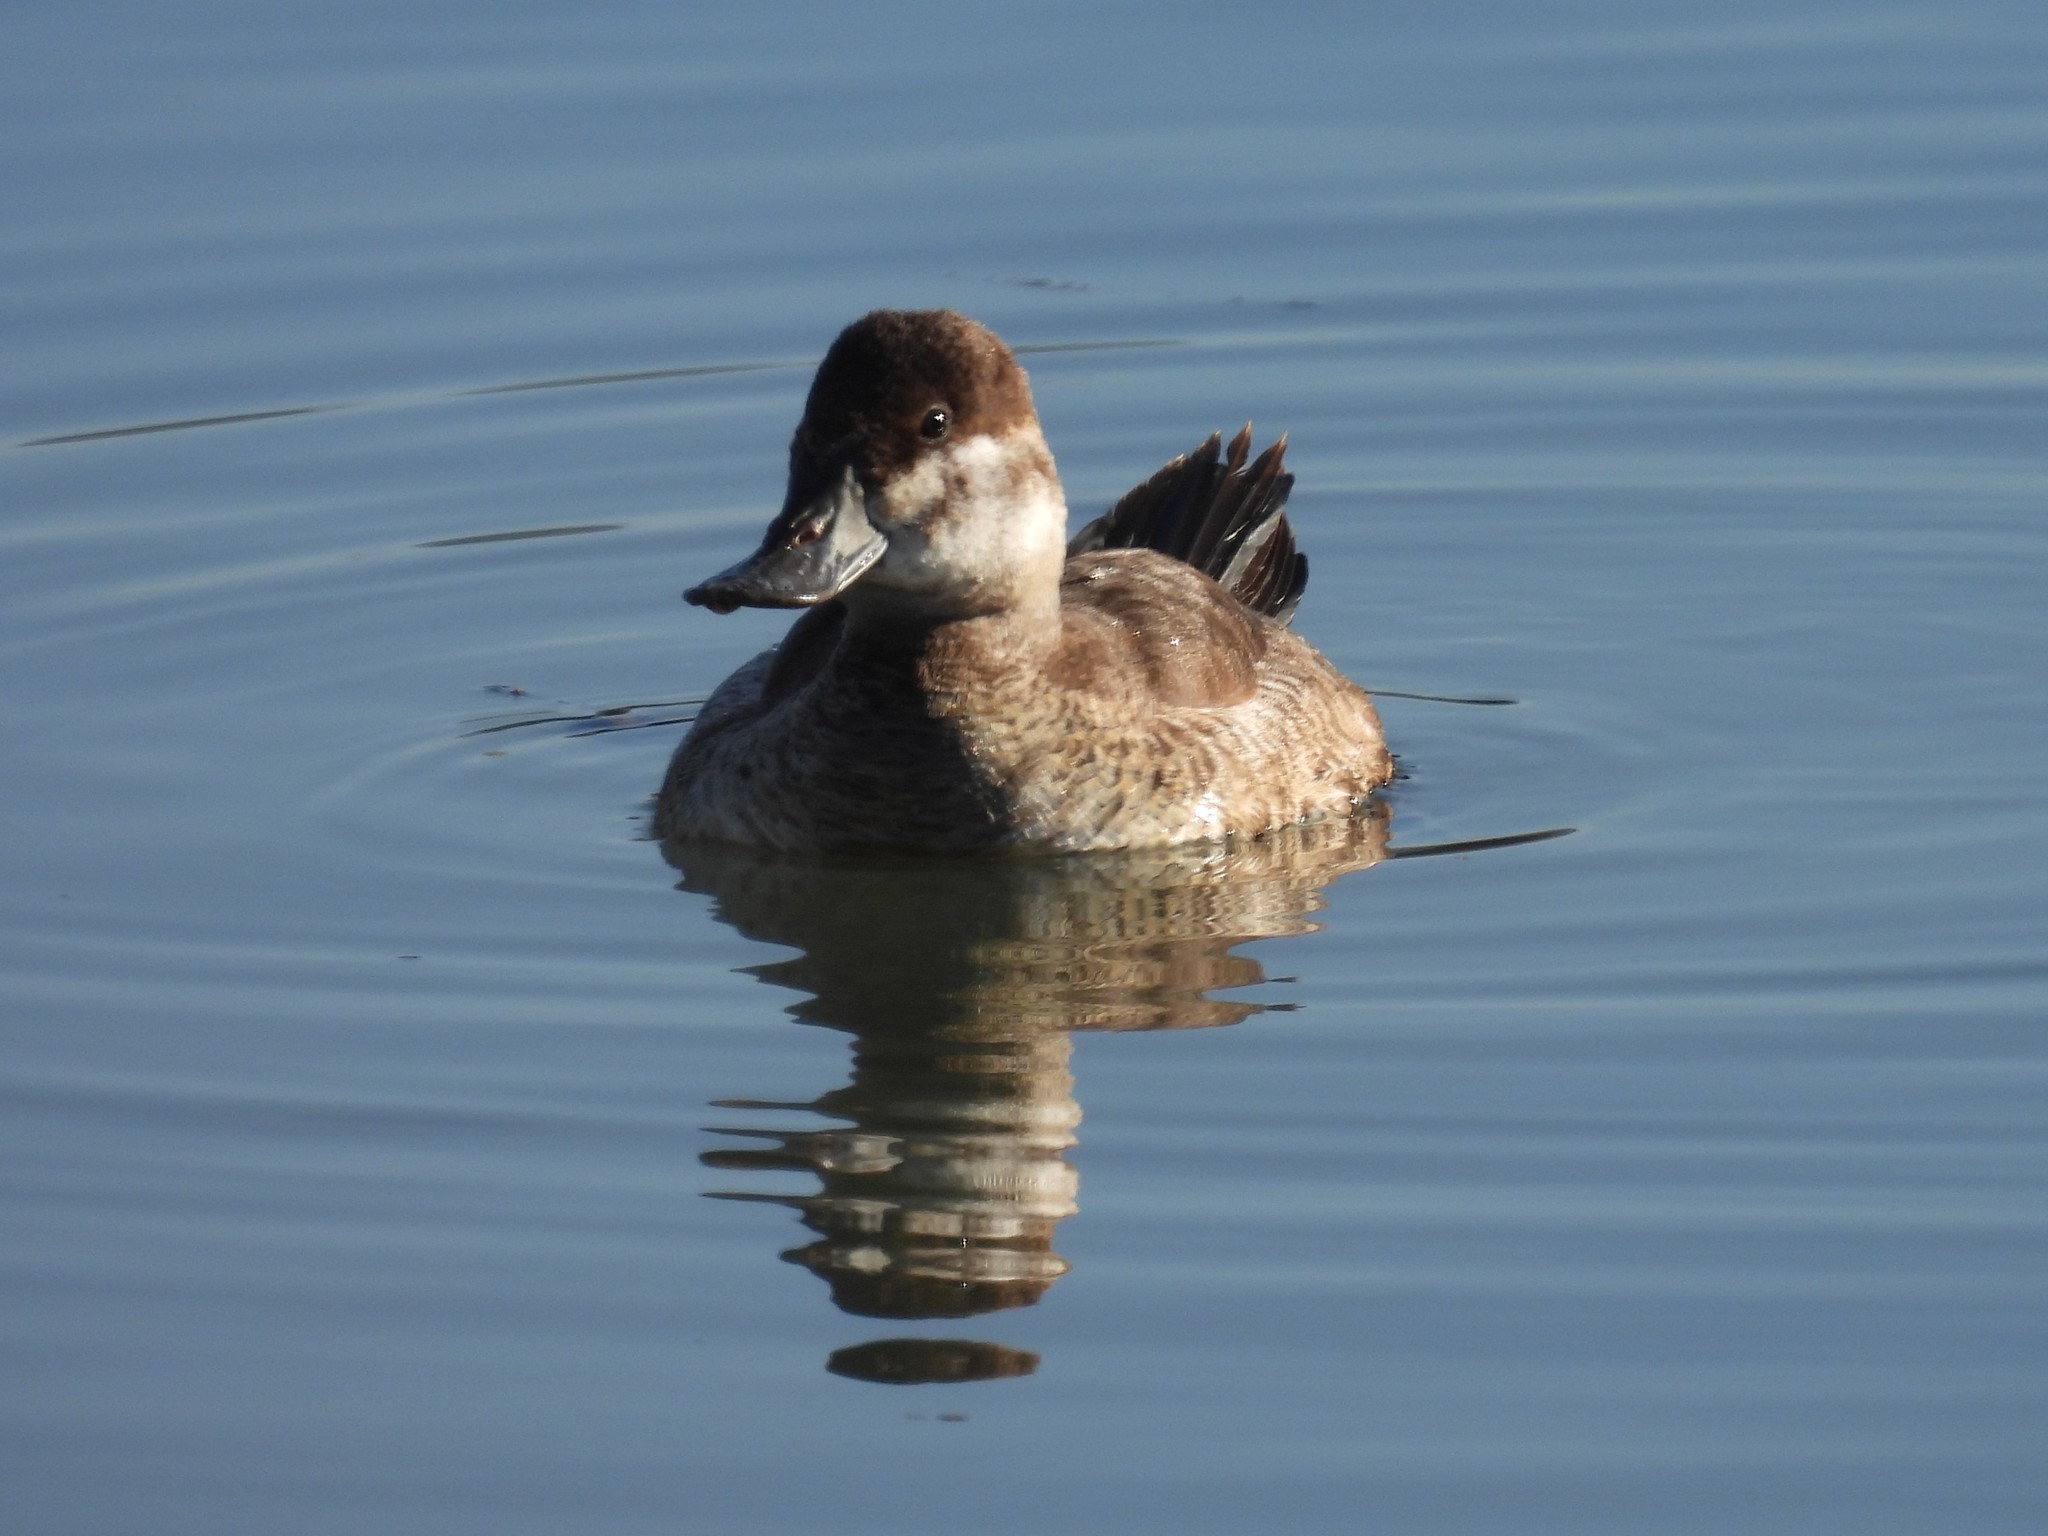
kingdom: Animalia
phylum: Chordata
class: Aves
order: Anseriformes
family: Anatidae
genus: Oxyura
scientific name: Oxyura jamaicensis
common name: Ruddy duck
